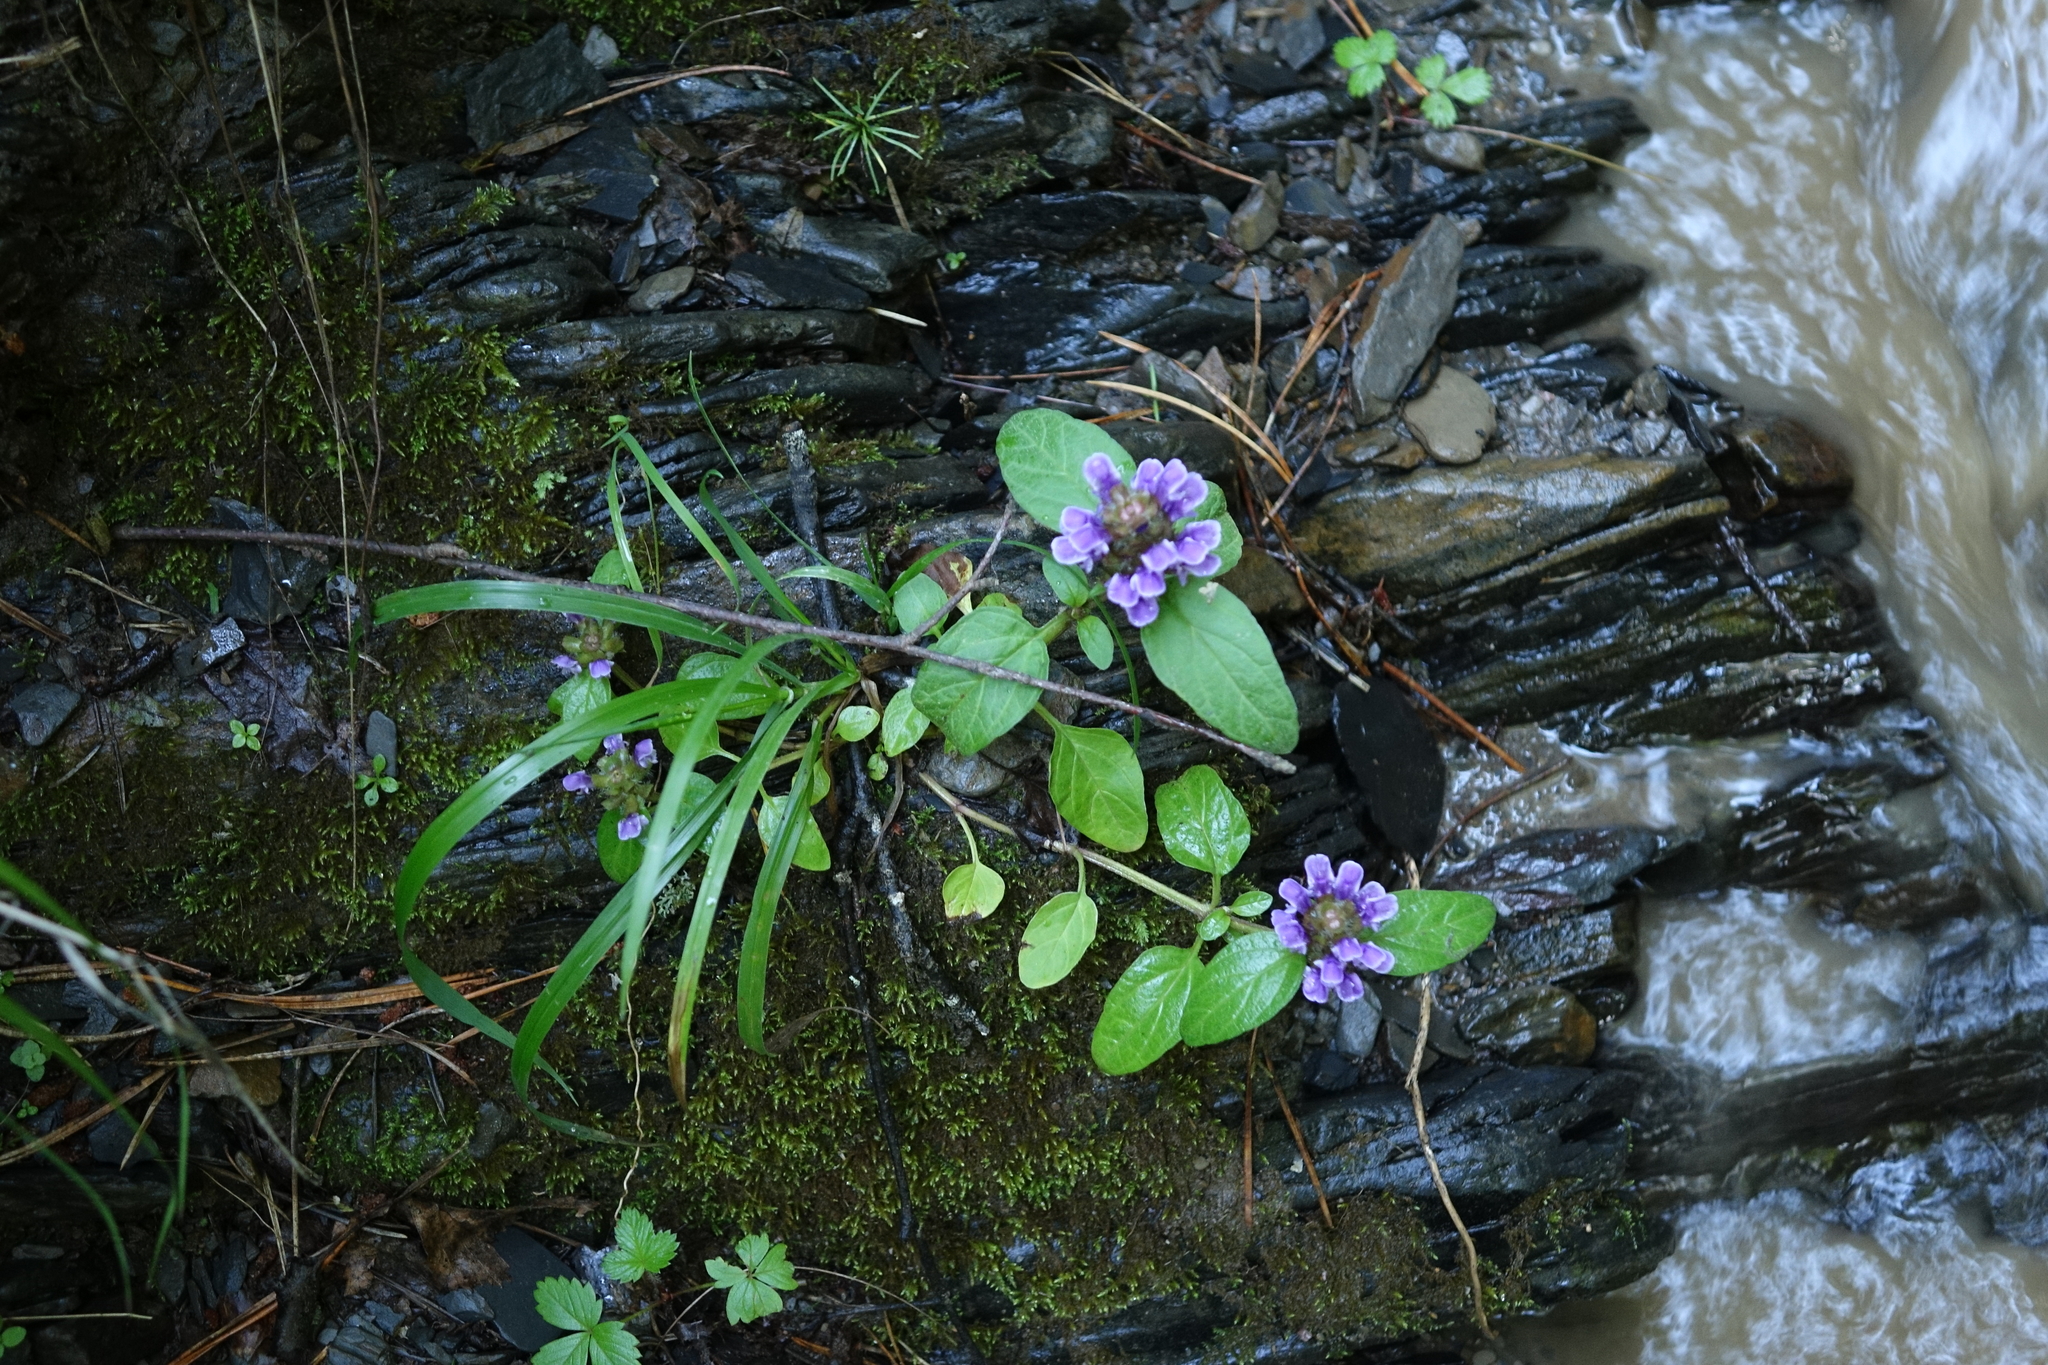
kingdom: Plantae
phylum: Tracheophyta
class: Magnoliopsida
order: Lamiales
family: Lamiaceae
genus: Prunella
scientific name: Prunella vulgaris
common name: Heal-all
